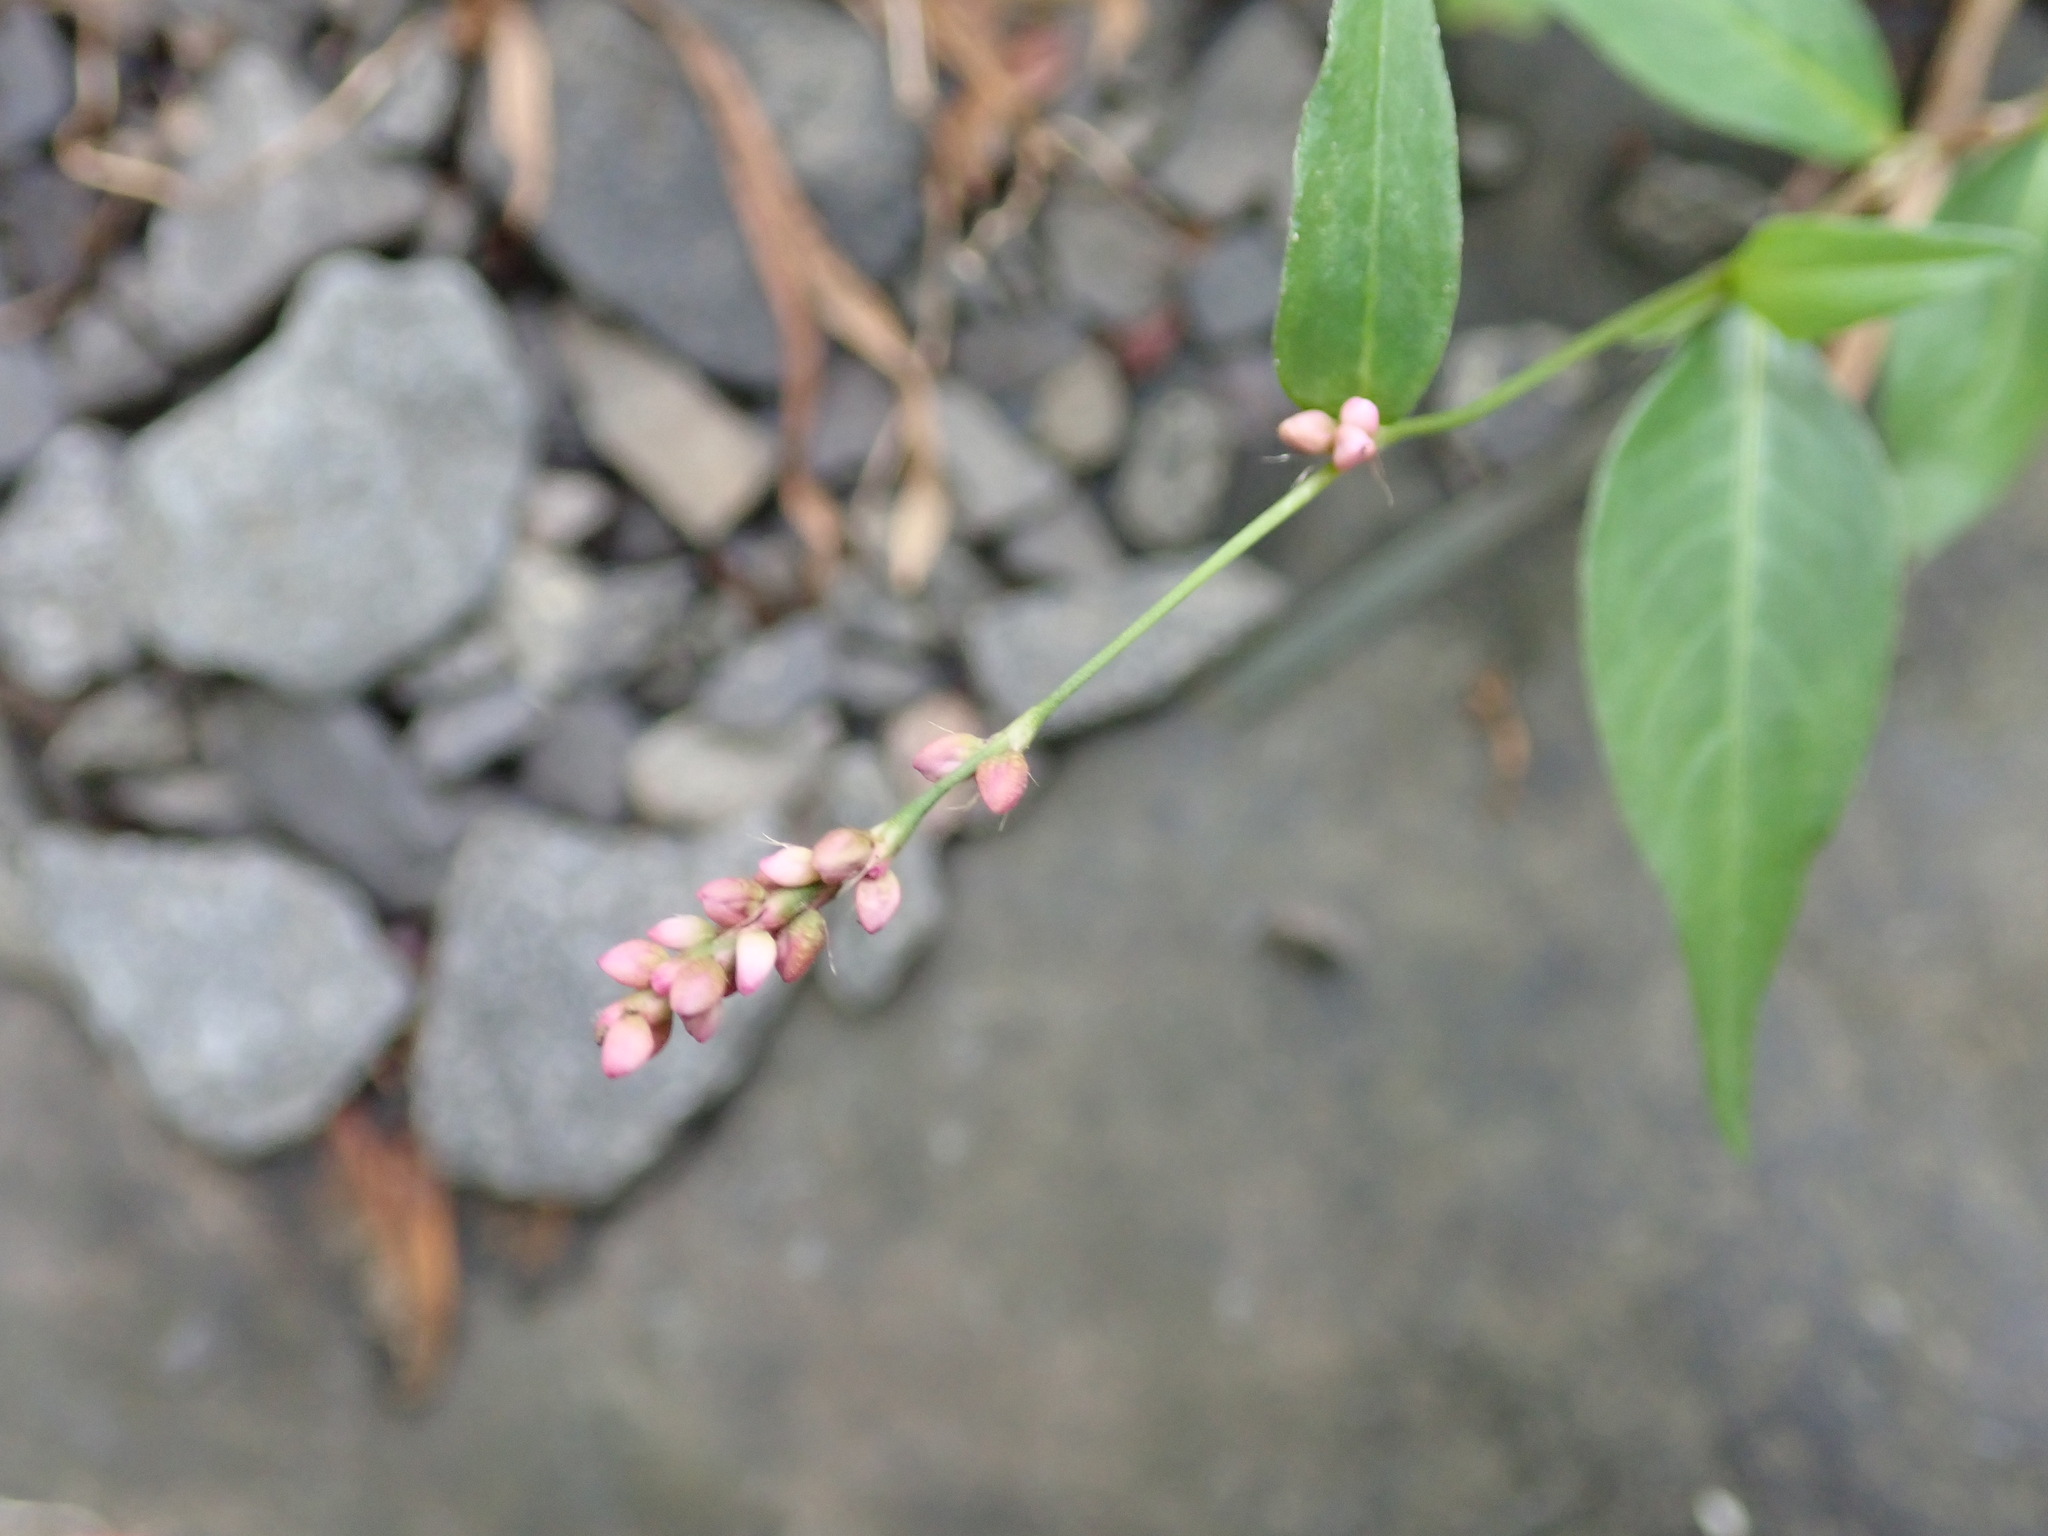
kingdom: Plantae
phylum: Tracheophyta
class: Magnoliopsida
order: Caryophyllales
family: Polygonaceae
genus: Persicaria
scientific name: Persicaria longiseta
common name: Bristly lady's-thumb
